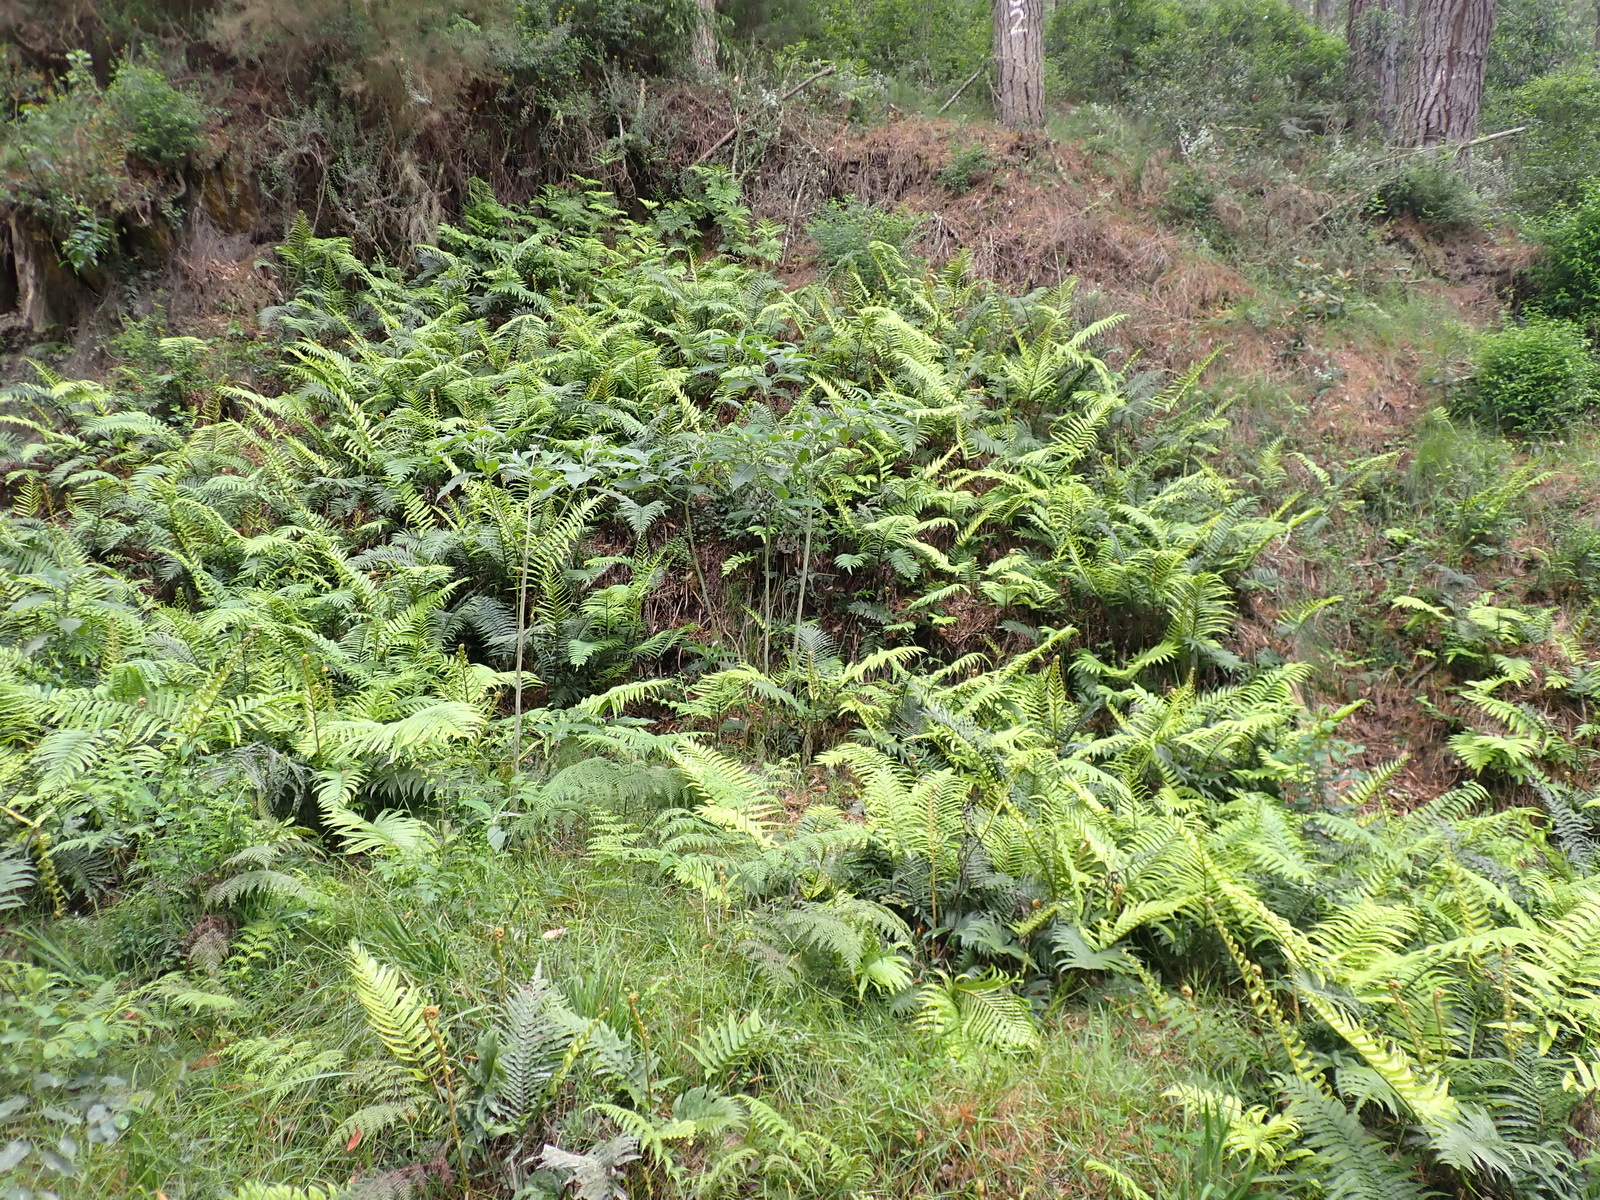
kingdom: Plantae
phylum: Tracheophyta
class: Polypodiopsida
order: Polypodiales
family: Blechnaceae
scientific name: Blechnaceae
